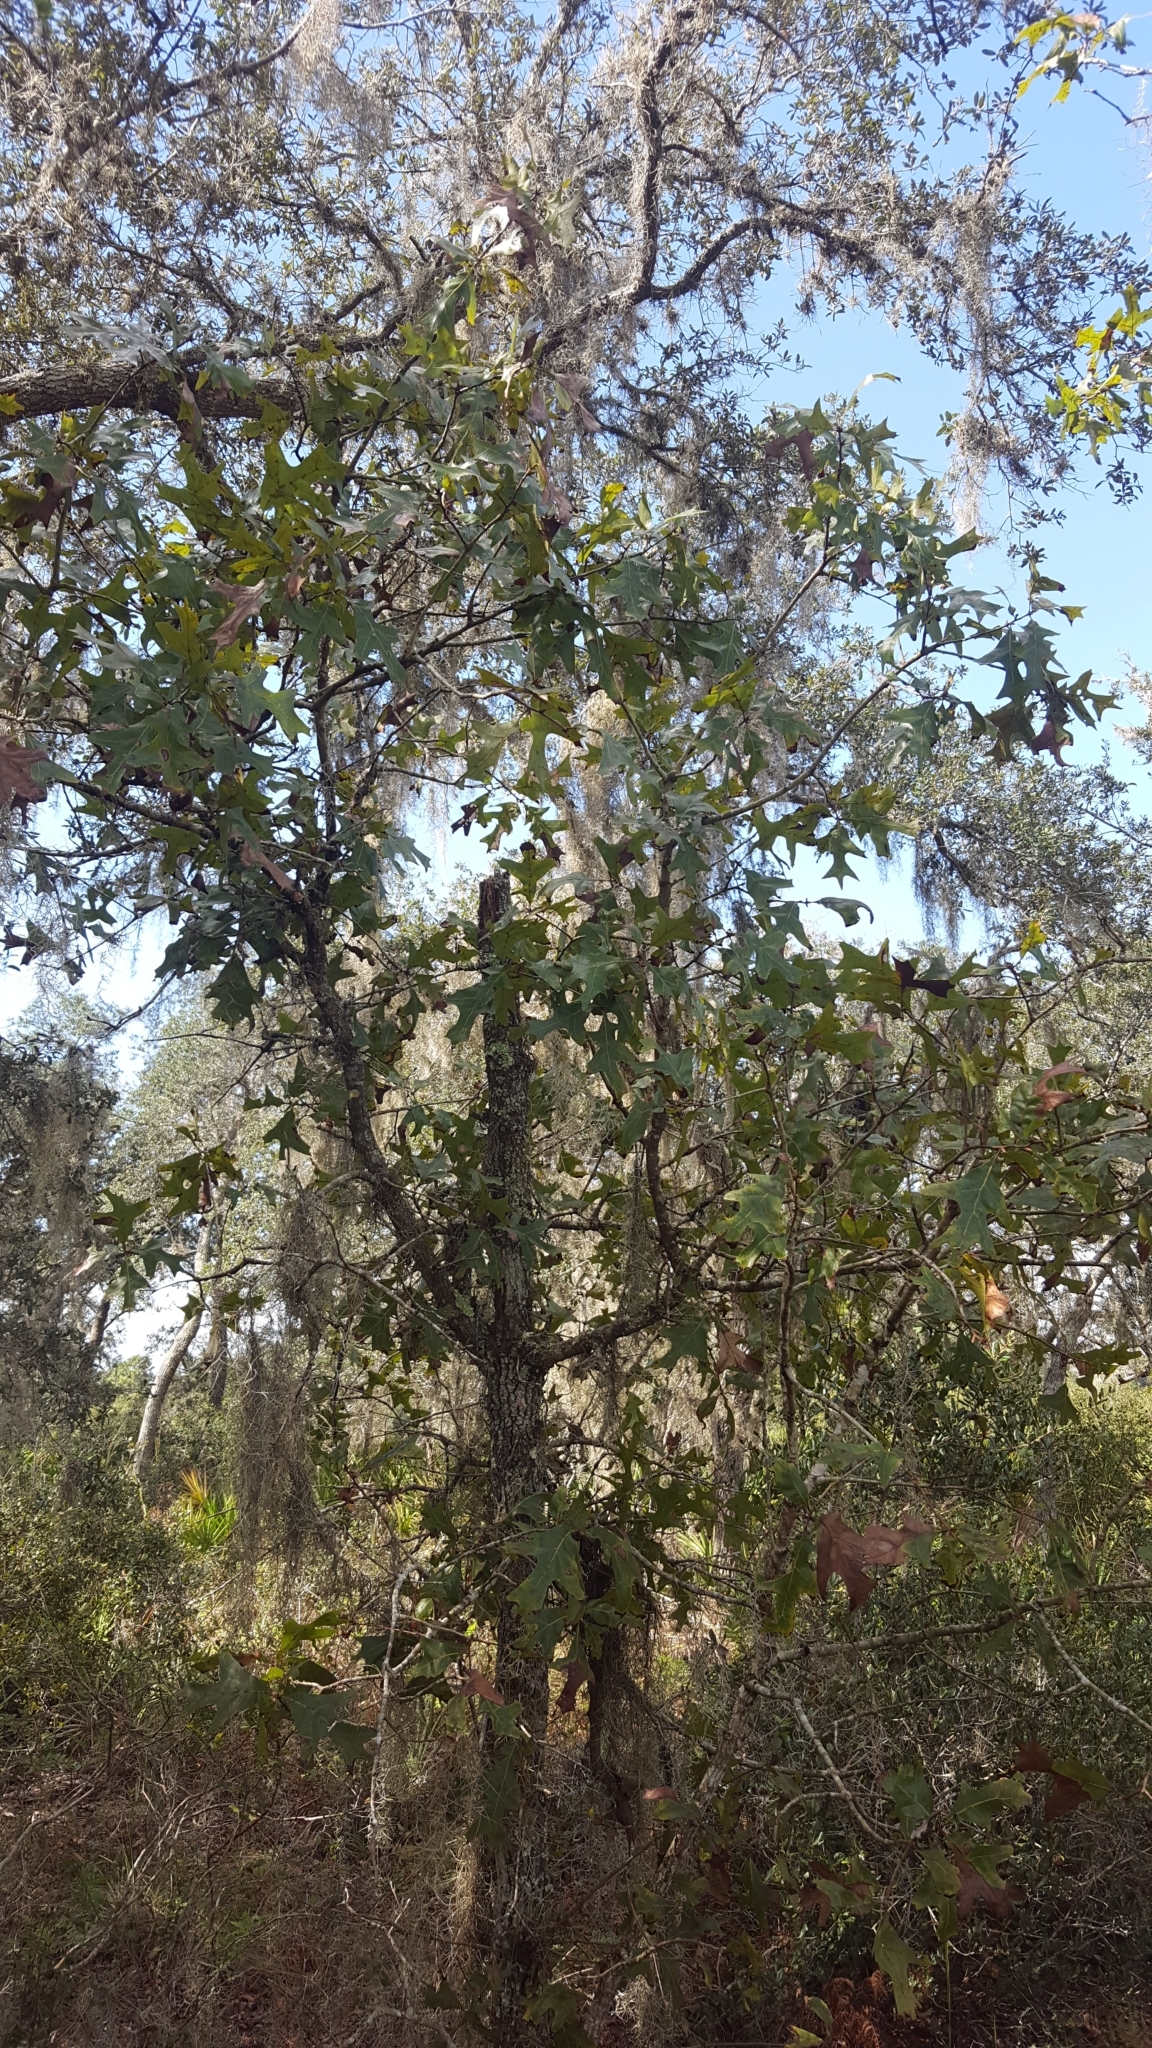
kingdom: Plantae
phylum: Tracheophyta
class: Magnoliopsida
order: Fagales
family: Fagaceae
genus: Quercus
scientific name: Quercus laevis
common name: Turkey oak
